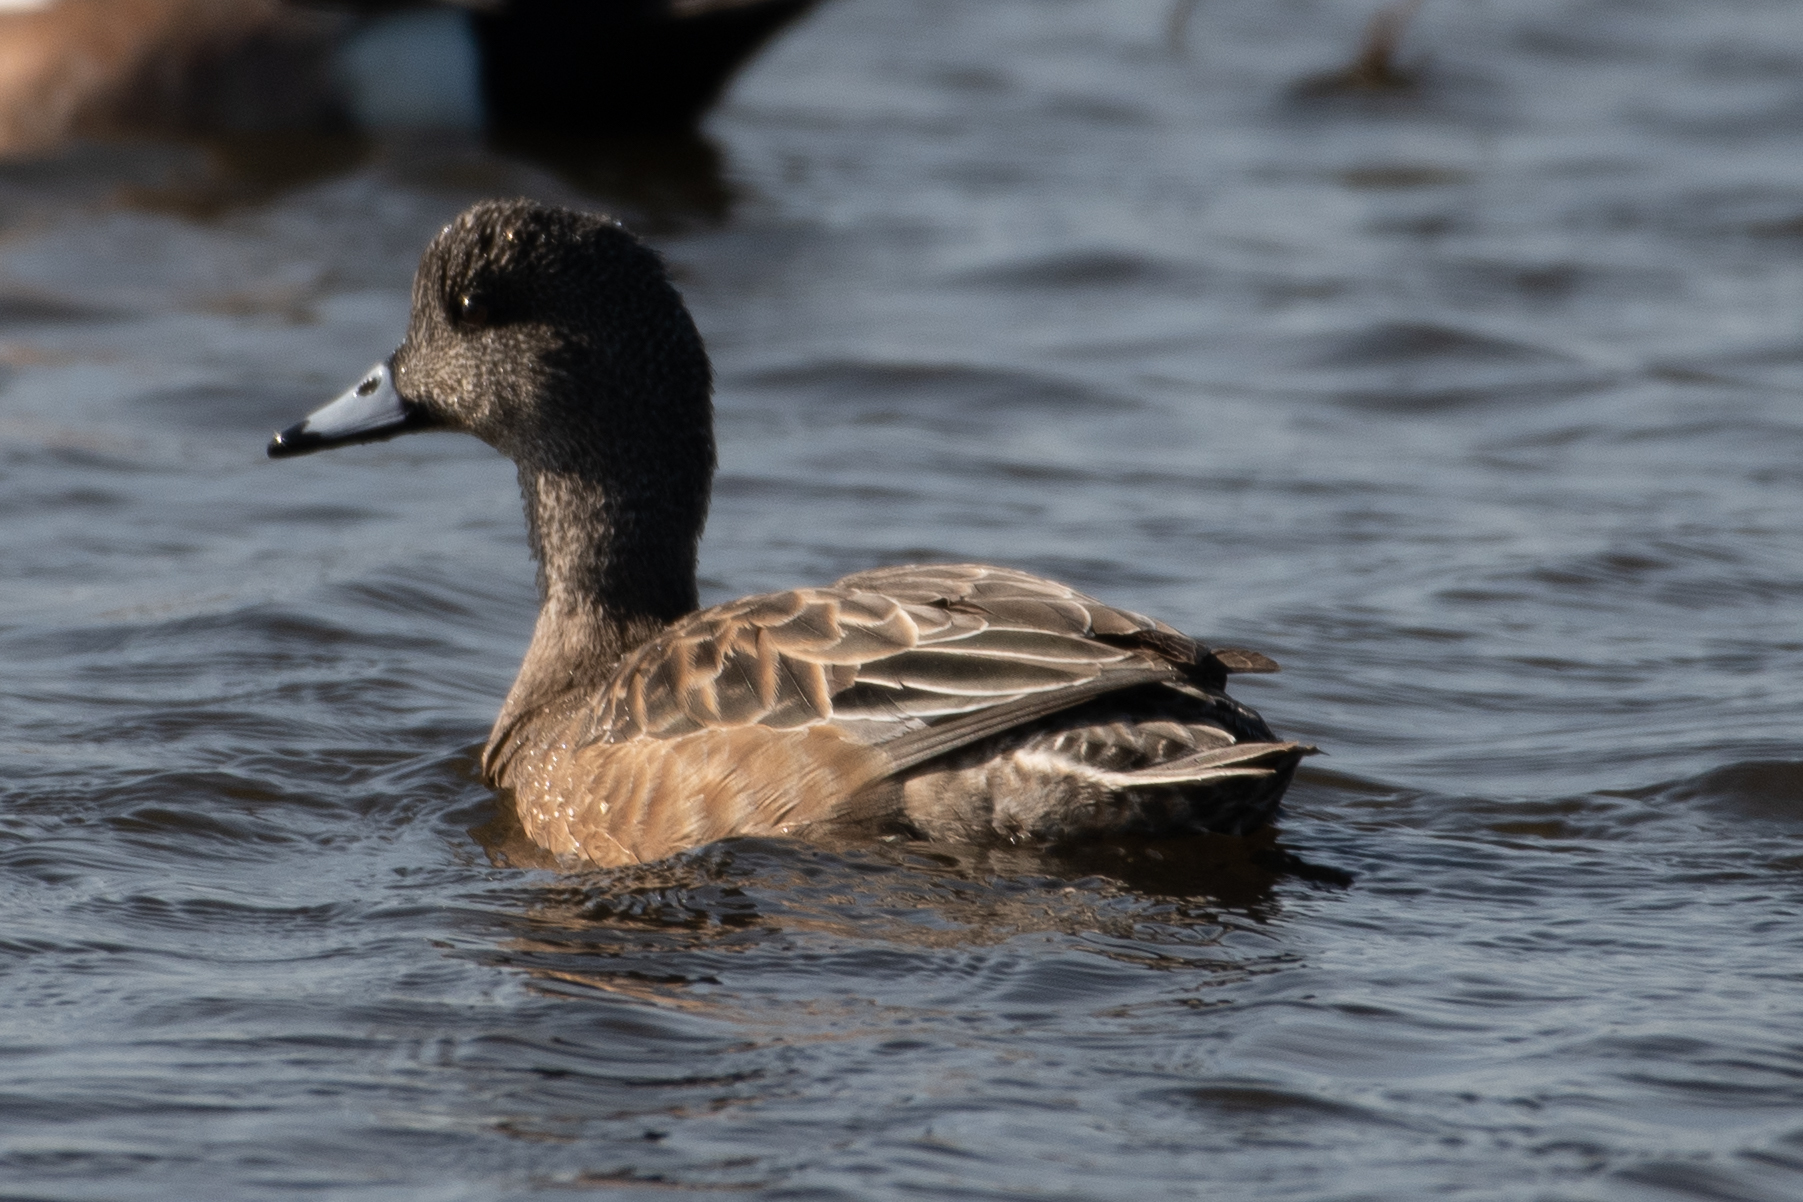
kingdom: Animalia
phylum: Chordata
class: Aves
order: Anseriformes
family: Anatidae
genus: Mareca
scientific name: Mareca americana
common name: American wigeon
